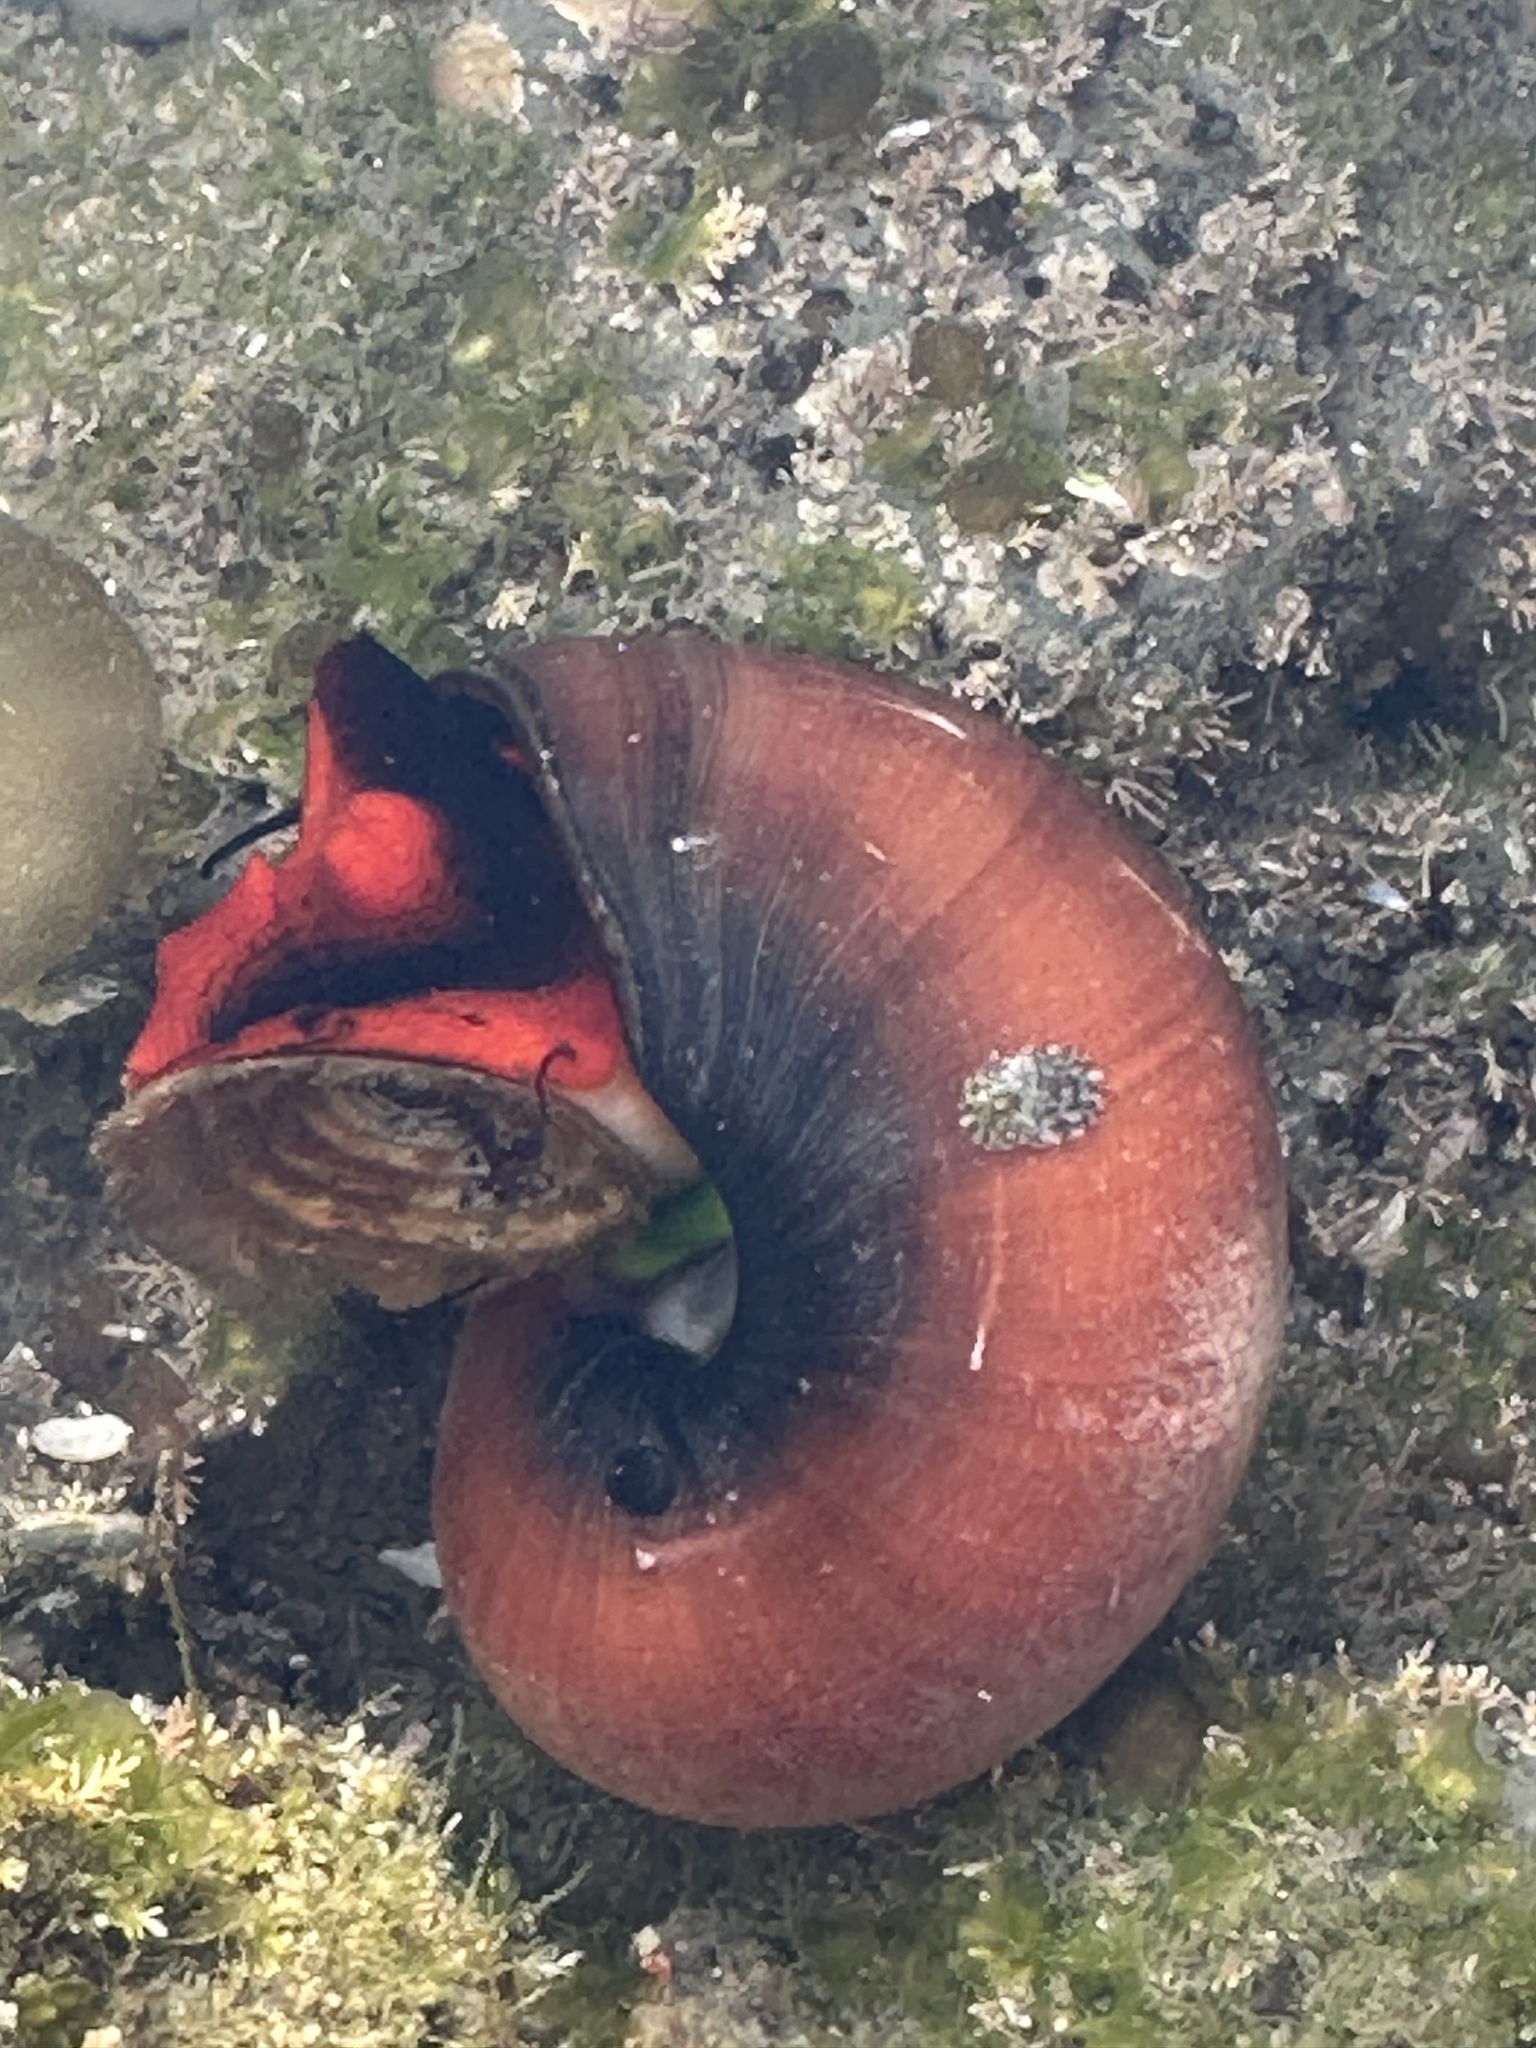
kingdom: Animalia
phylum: Mollusca
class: Gastropoda
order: Trochida
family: Tegulidae
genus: Norrisia
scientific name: Norrisia norrisii
